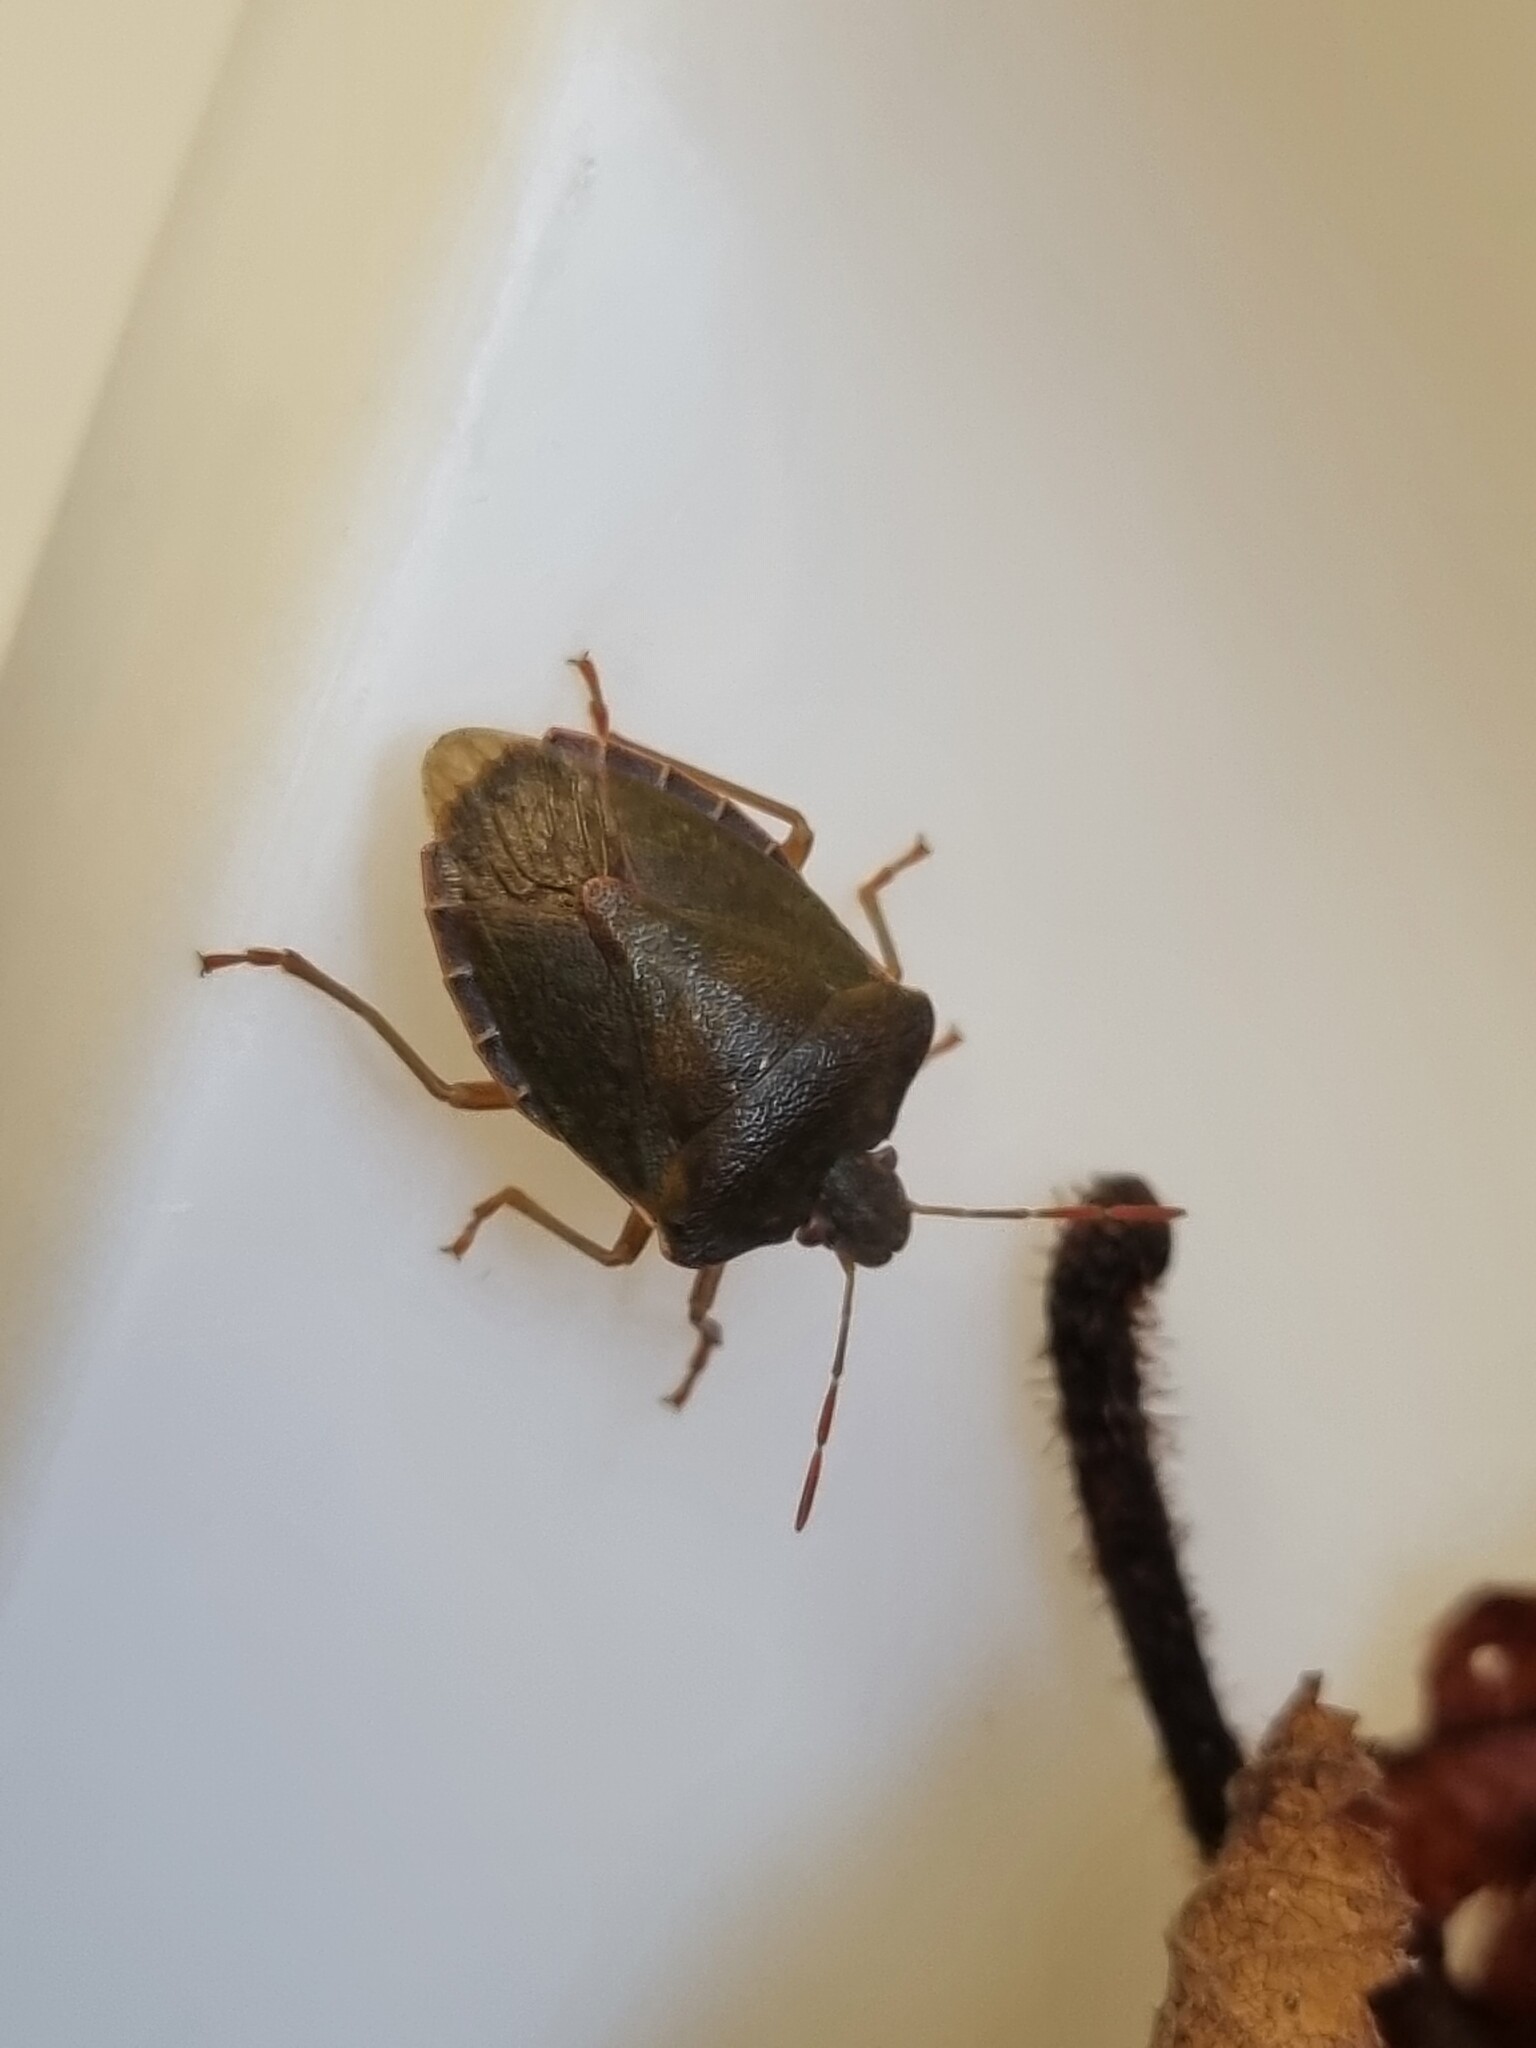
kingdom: Animalia
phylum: Arthropoda
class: Insecta
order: Hemiptera
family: Pentatomidae
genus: Palomena
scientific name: Palomena prasina
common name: Green shieldbug
